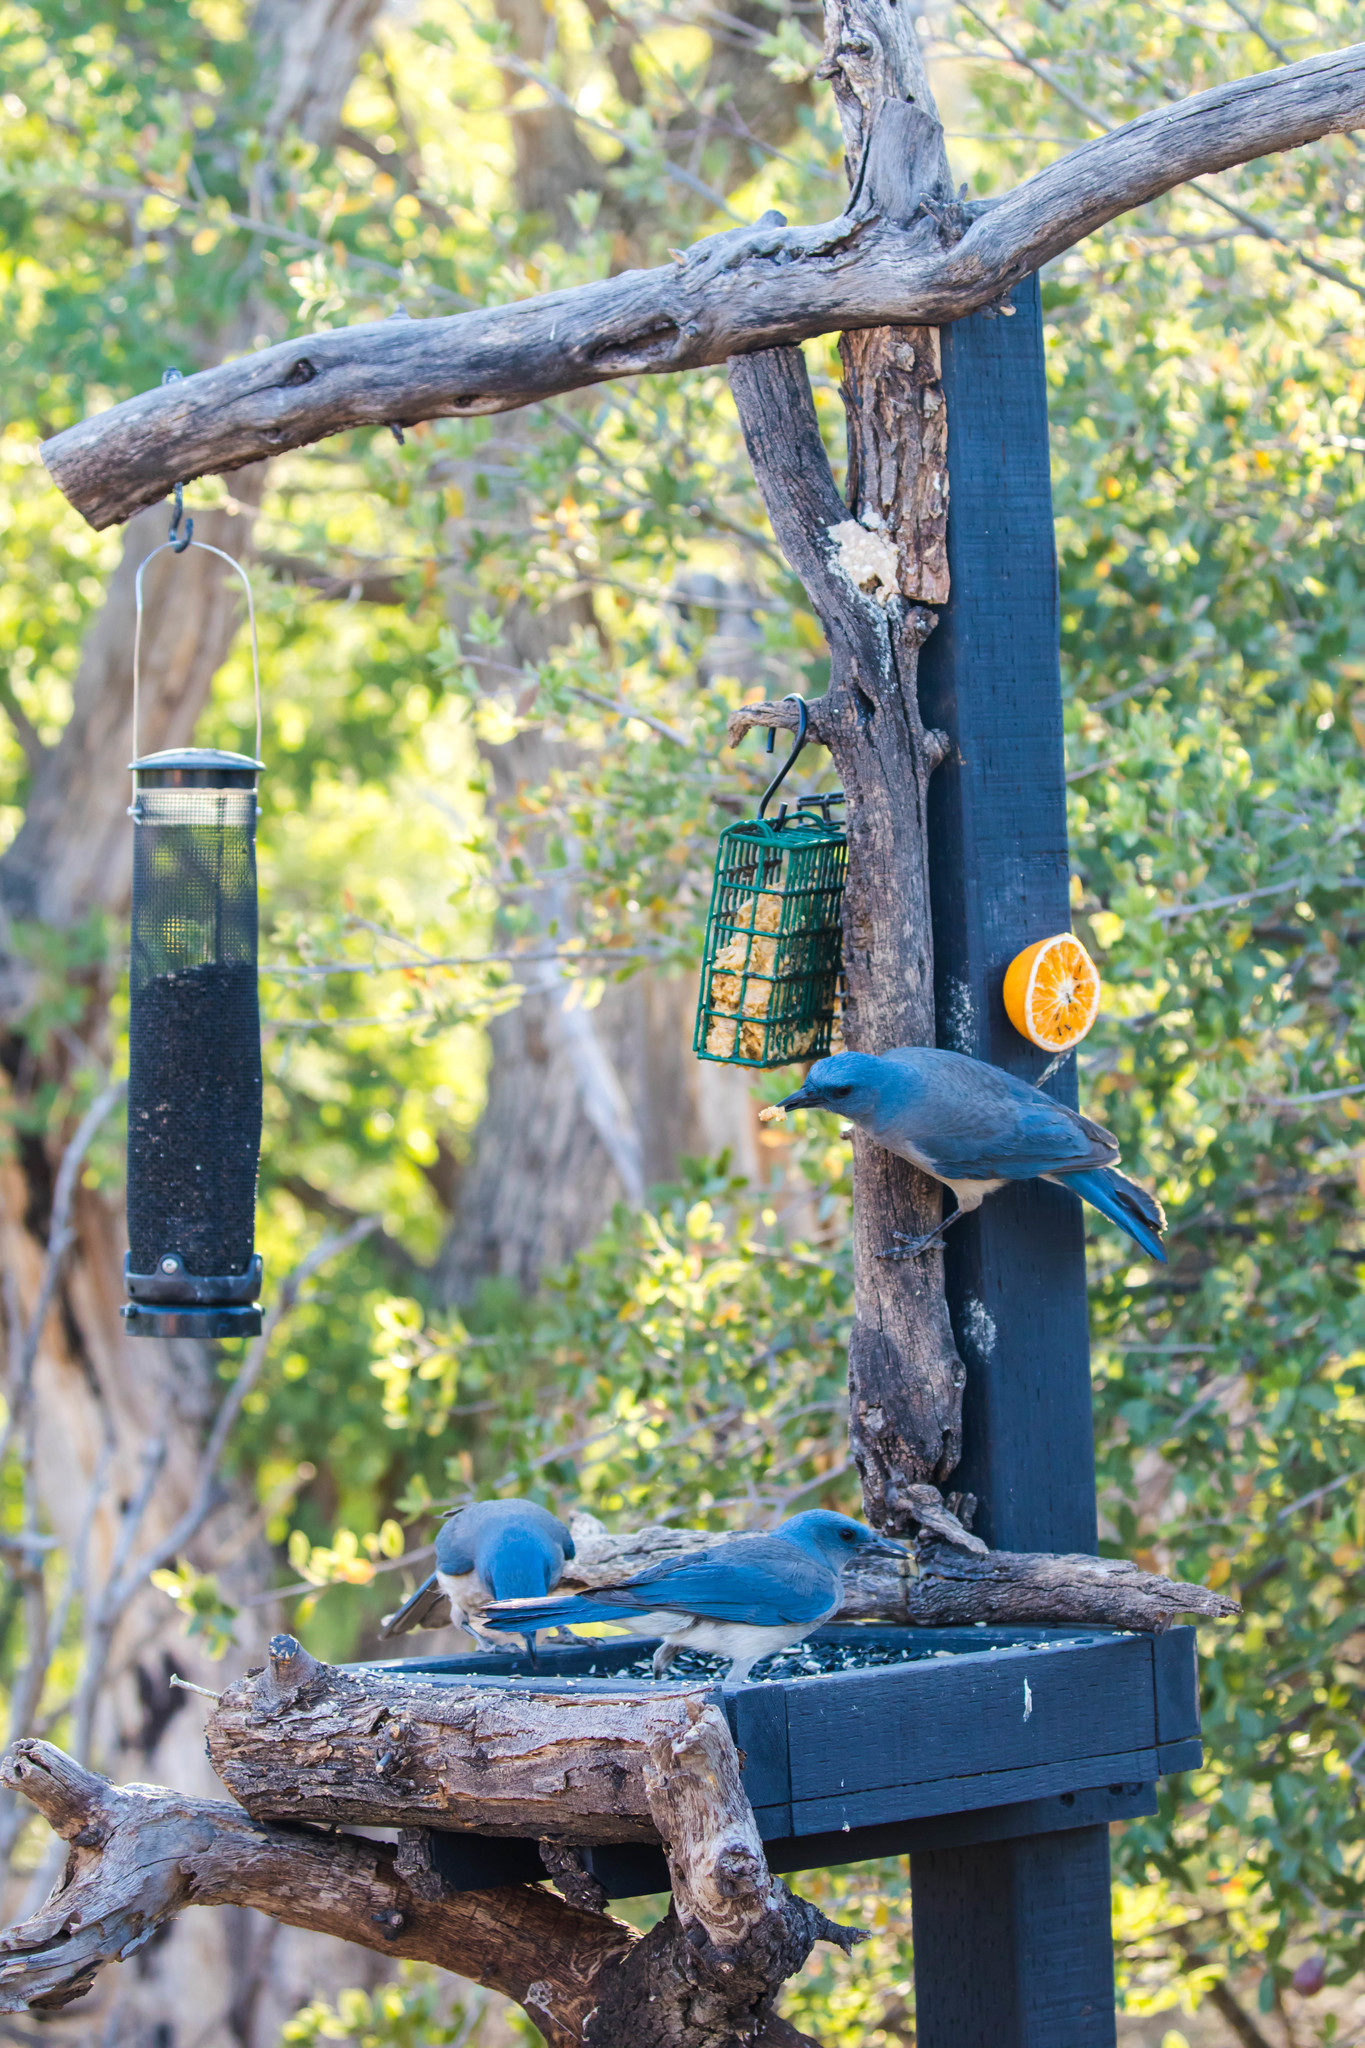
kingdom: Animalia
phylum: Chordata
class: Aves
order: Passeriformes
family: Corvidae
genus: Aphelocoma
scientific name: Aphelocoma wollweberi
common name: Mexican jay
